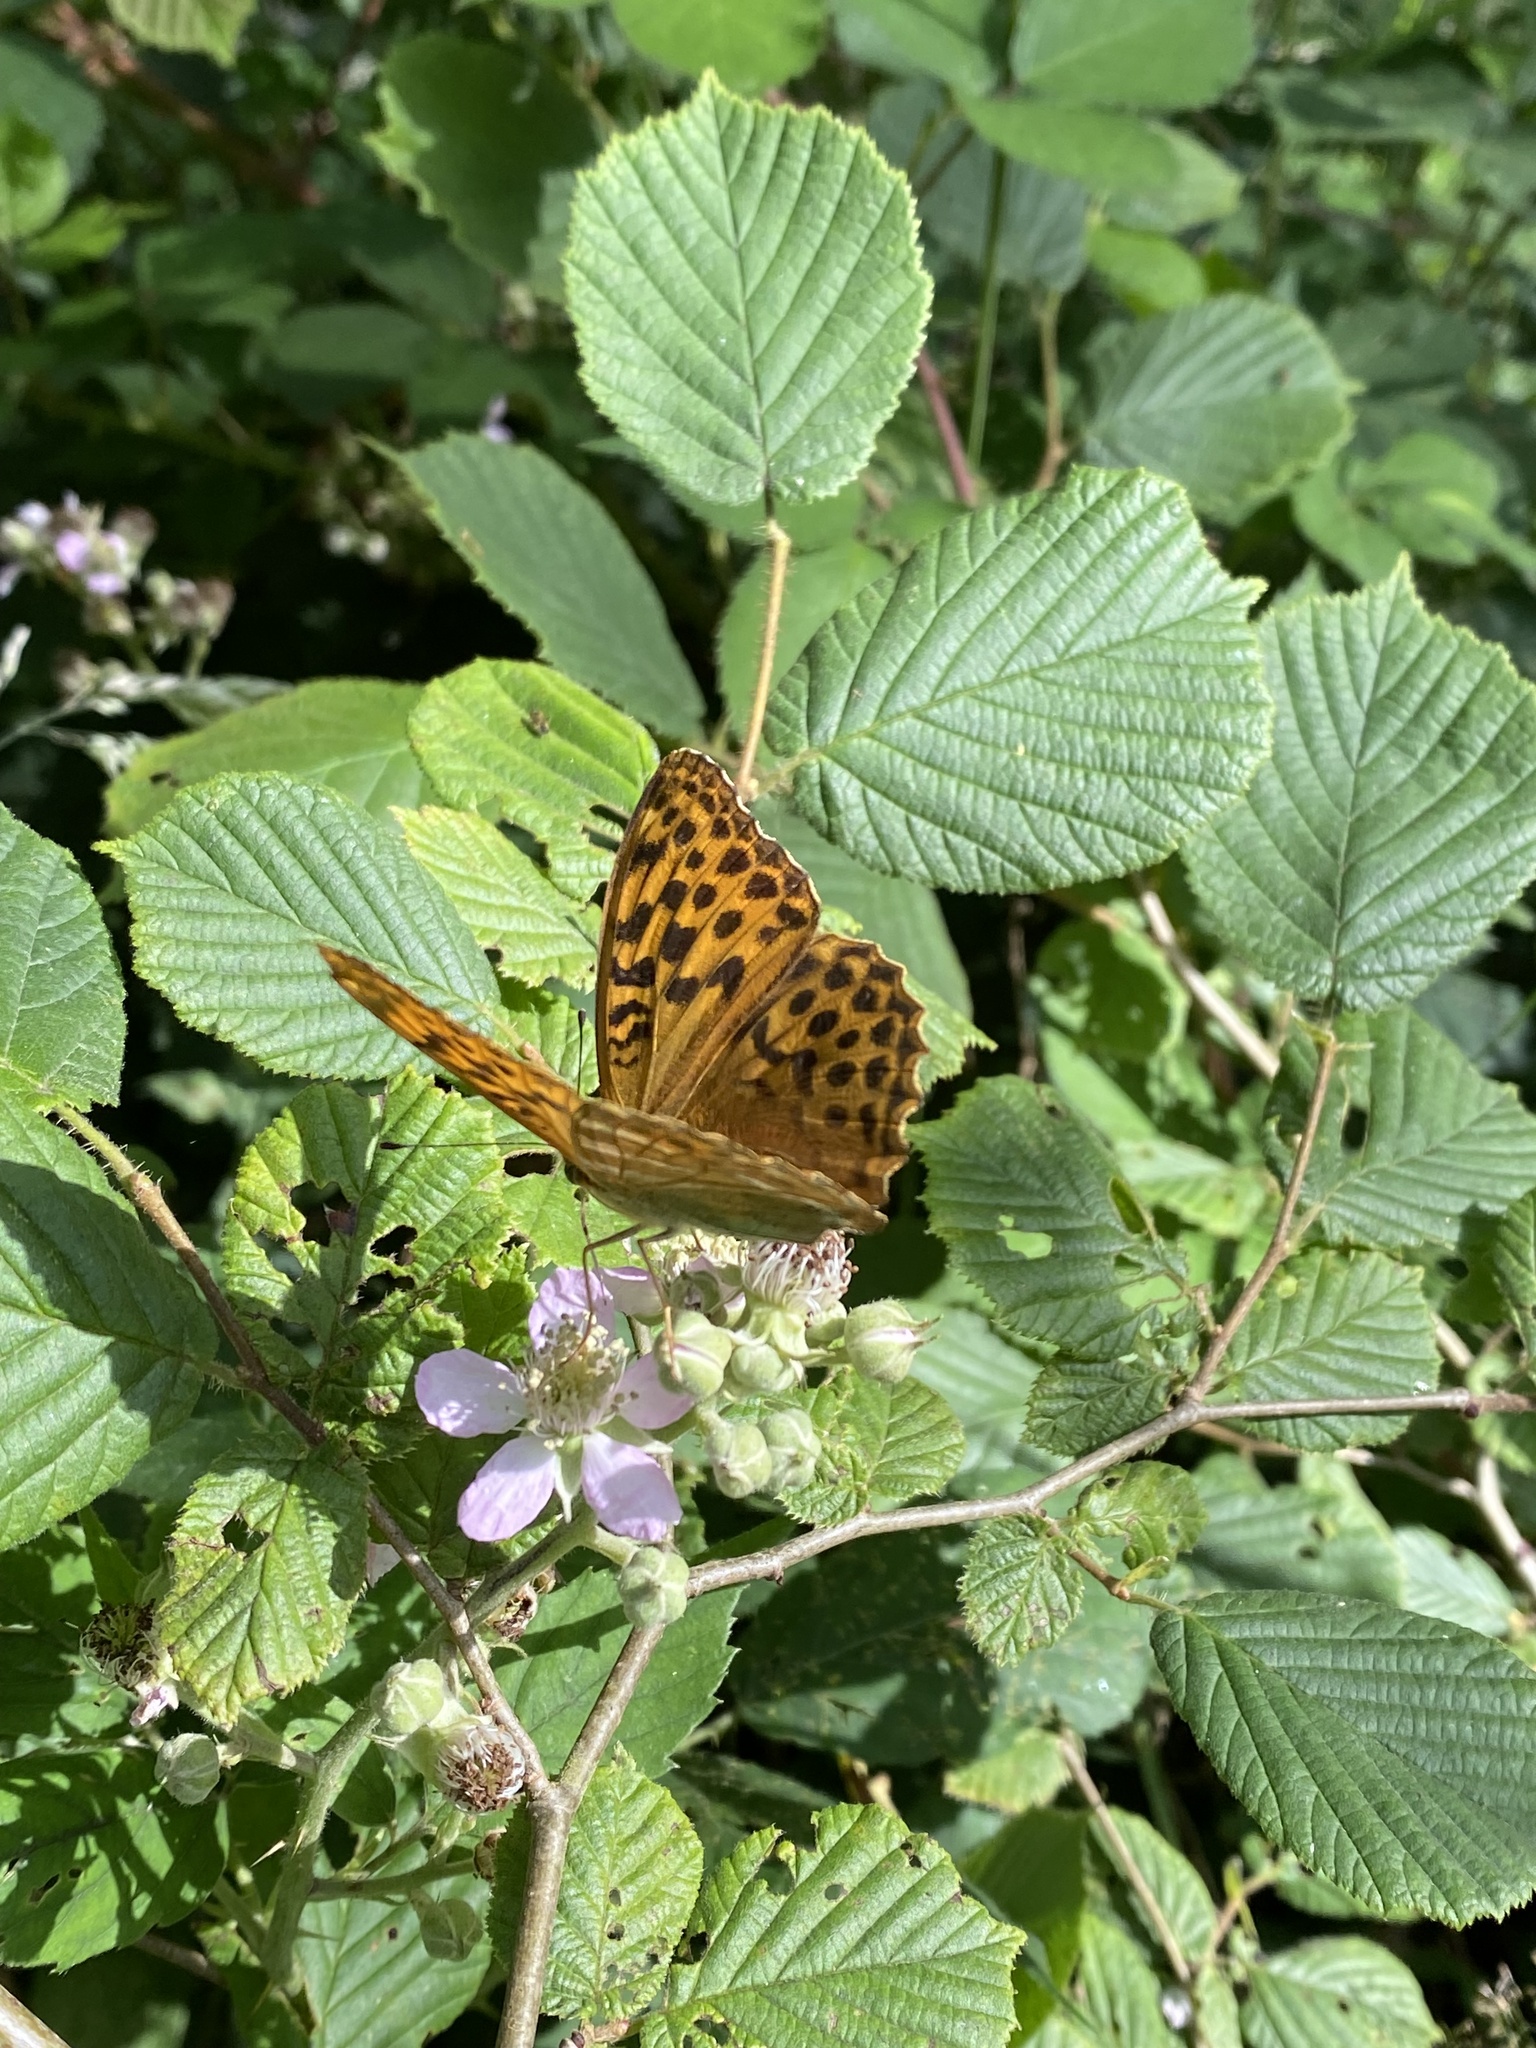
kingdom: Animalia
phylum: Arthropoda
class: Insecta
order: Lepidoptera
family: Nymphalidae
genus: Argynnis
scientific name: Argynnis paphia
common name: Silver-washed fritillary
